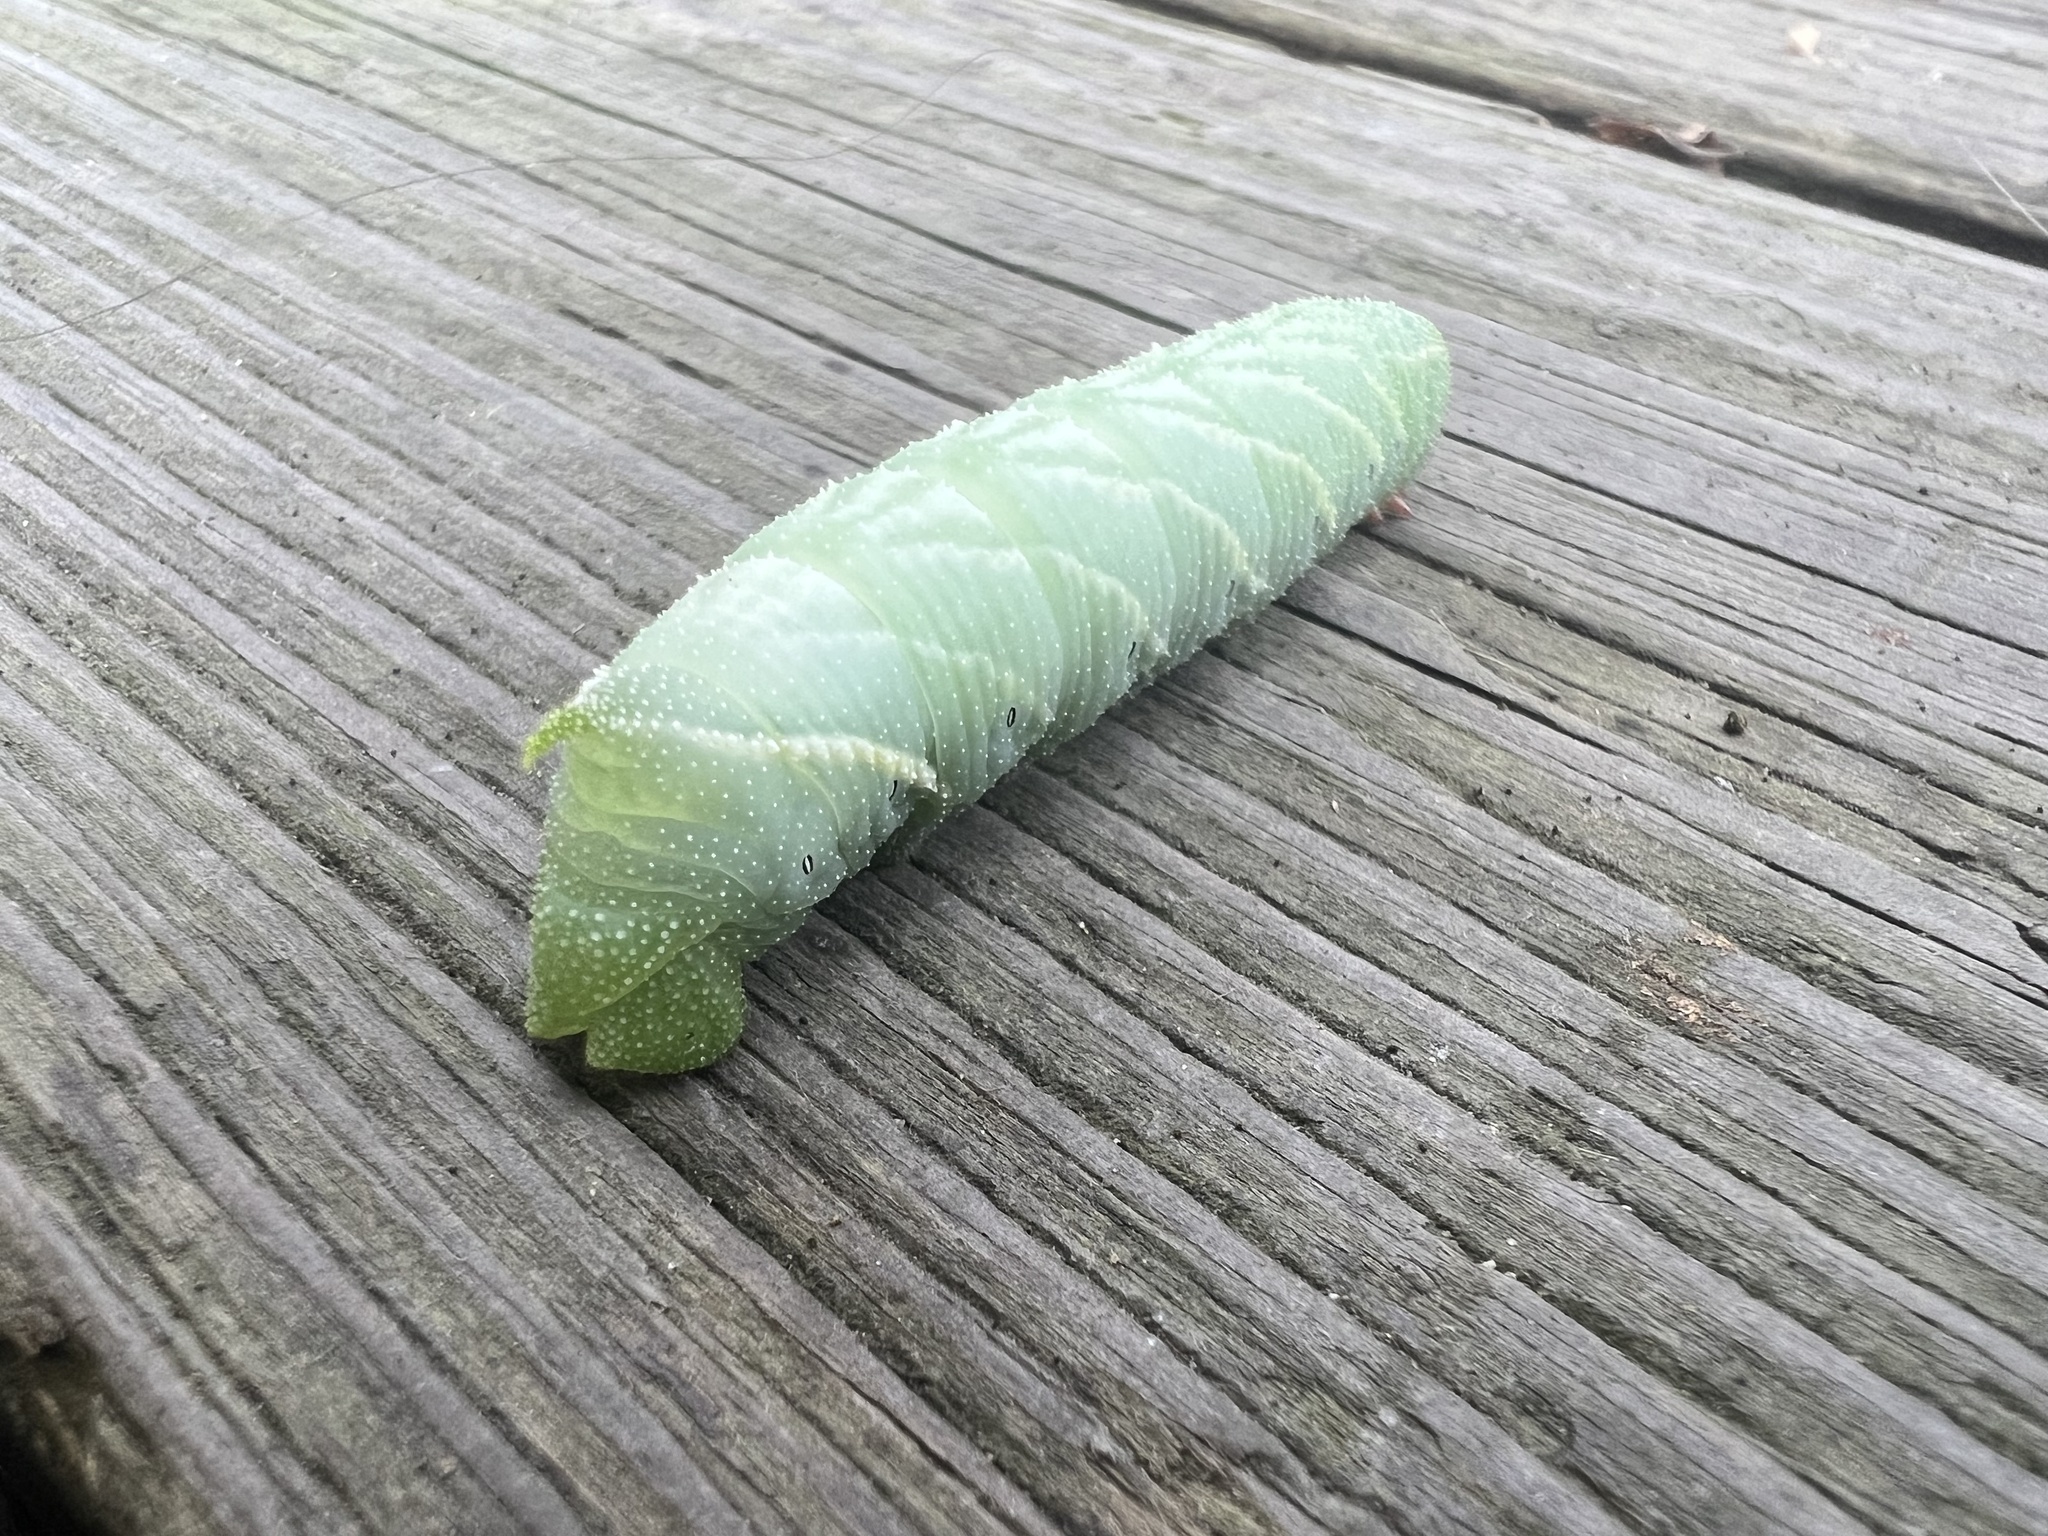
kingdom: Animalia
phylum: Arthropoda
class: Insecta
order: Lepidoptera
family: Sphingidae
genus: Paonias
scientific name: Paonias excaecata
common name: Blind-eyed sphinx
